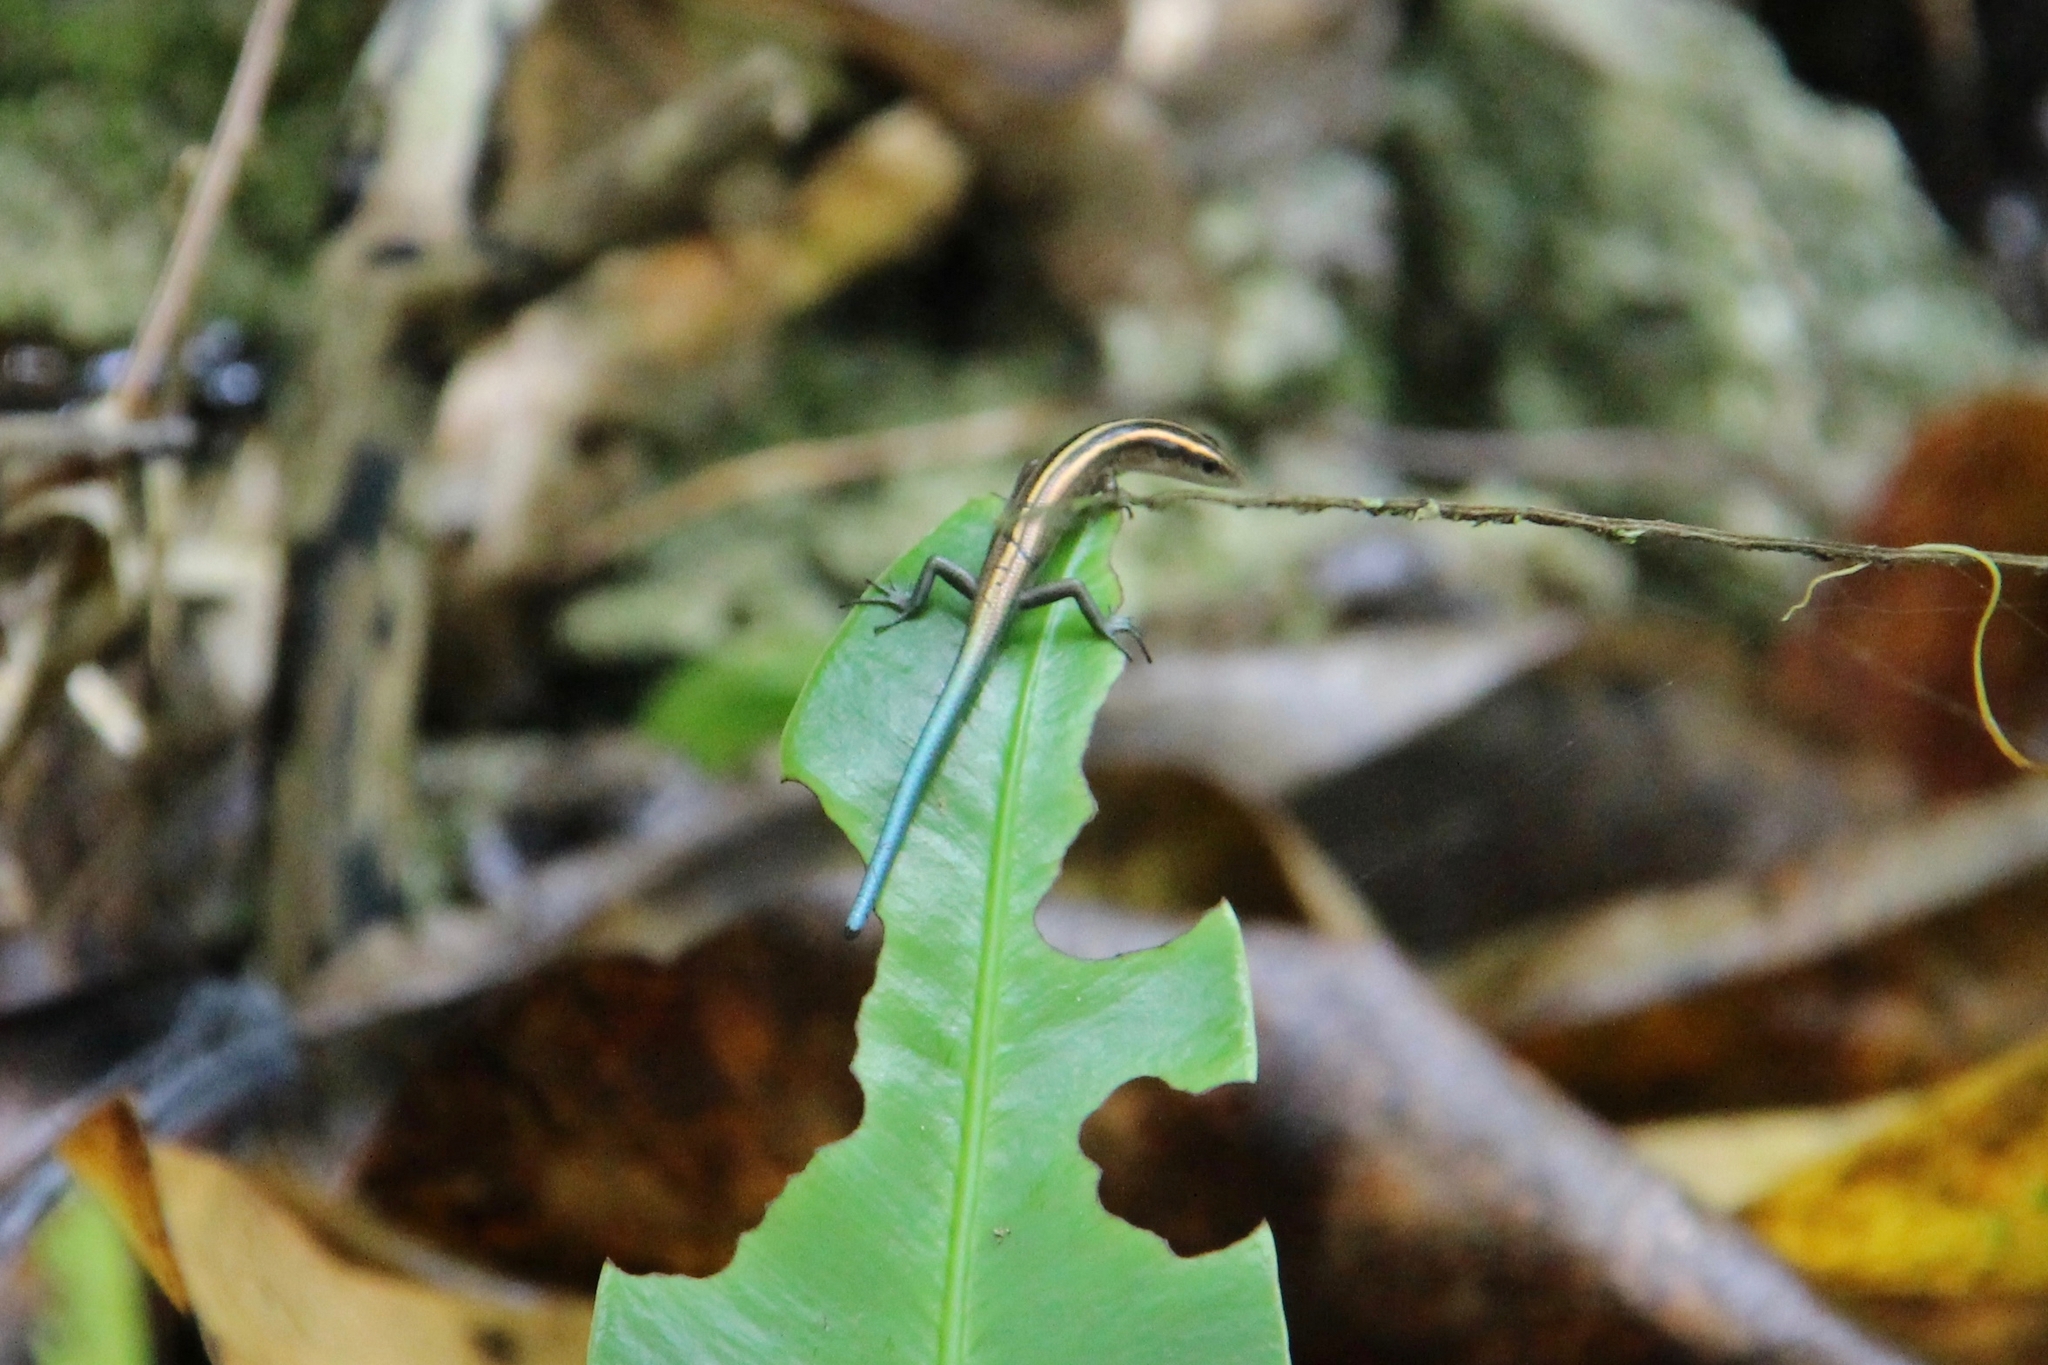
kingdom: Animalia
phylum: Chordata
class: Squamata
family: Scincidae
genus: Emoia
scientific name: Emoia impar
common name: Azure-tailed skink
